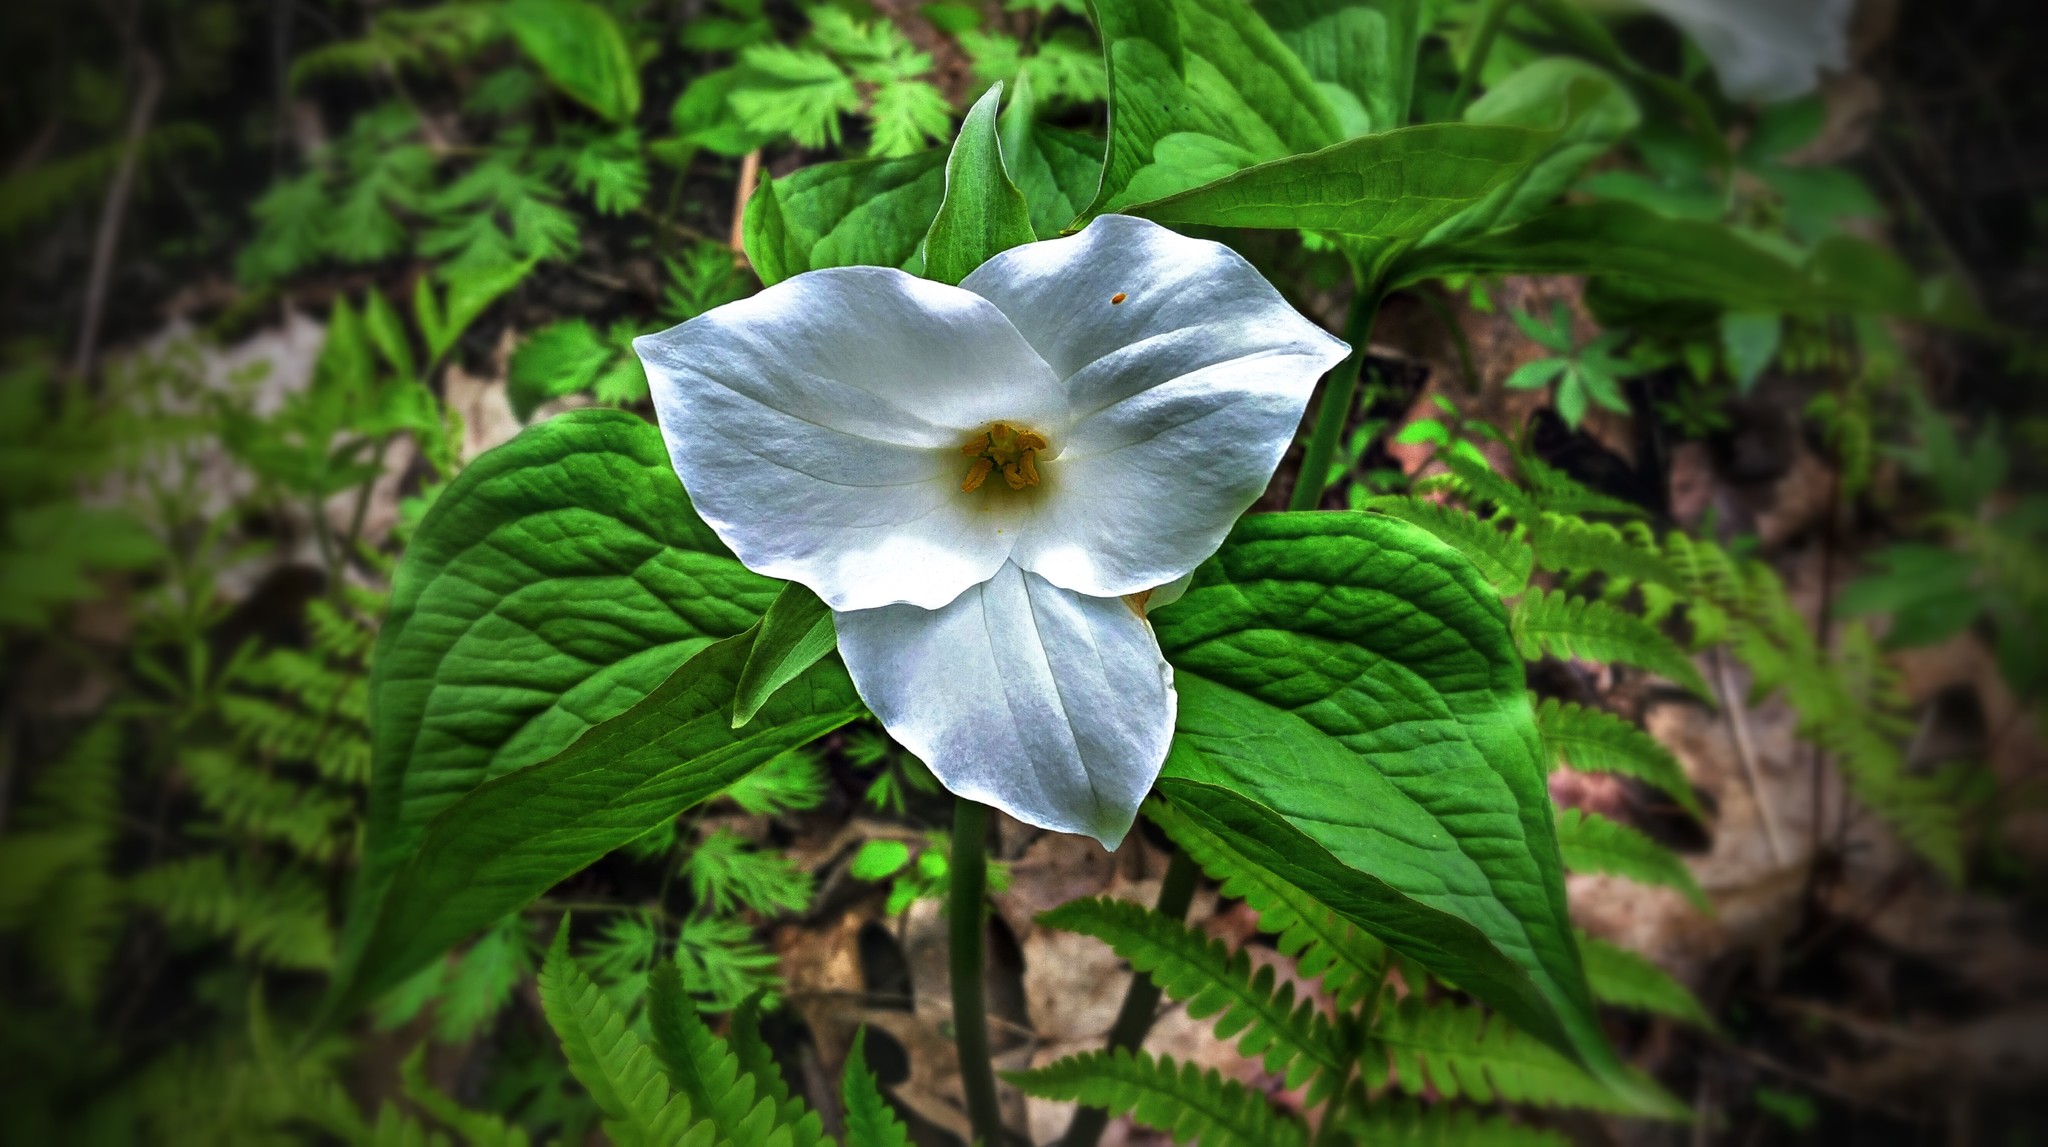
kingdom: Plantae
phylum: Tracheophyta
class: Liliopsida
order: Liliales
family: Melanthiaceae
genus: Trillium
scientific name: Trillium grandiflorum
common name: Great white trillium
